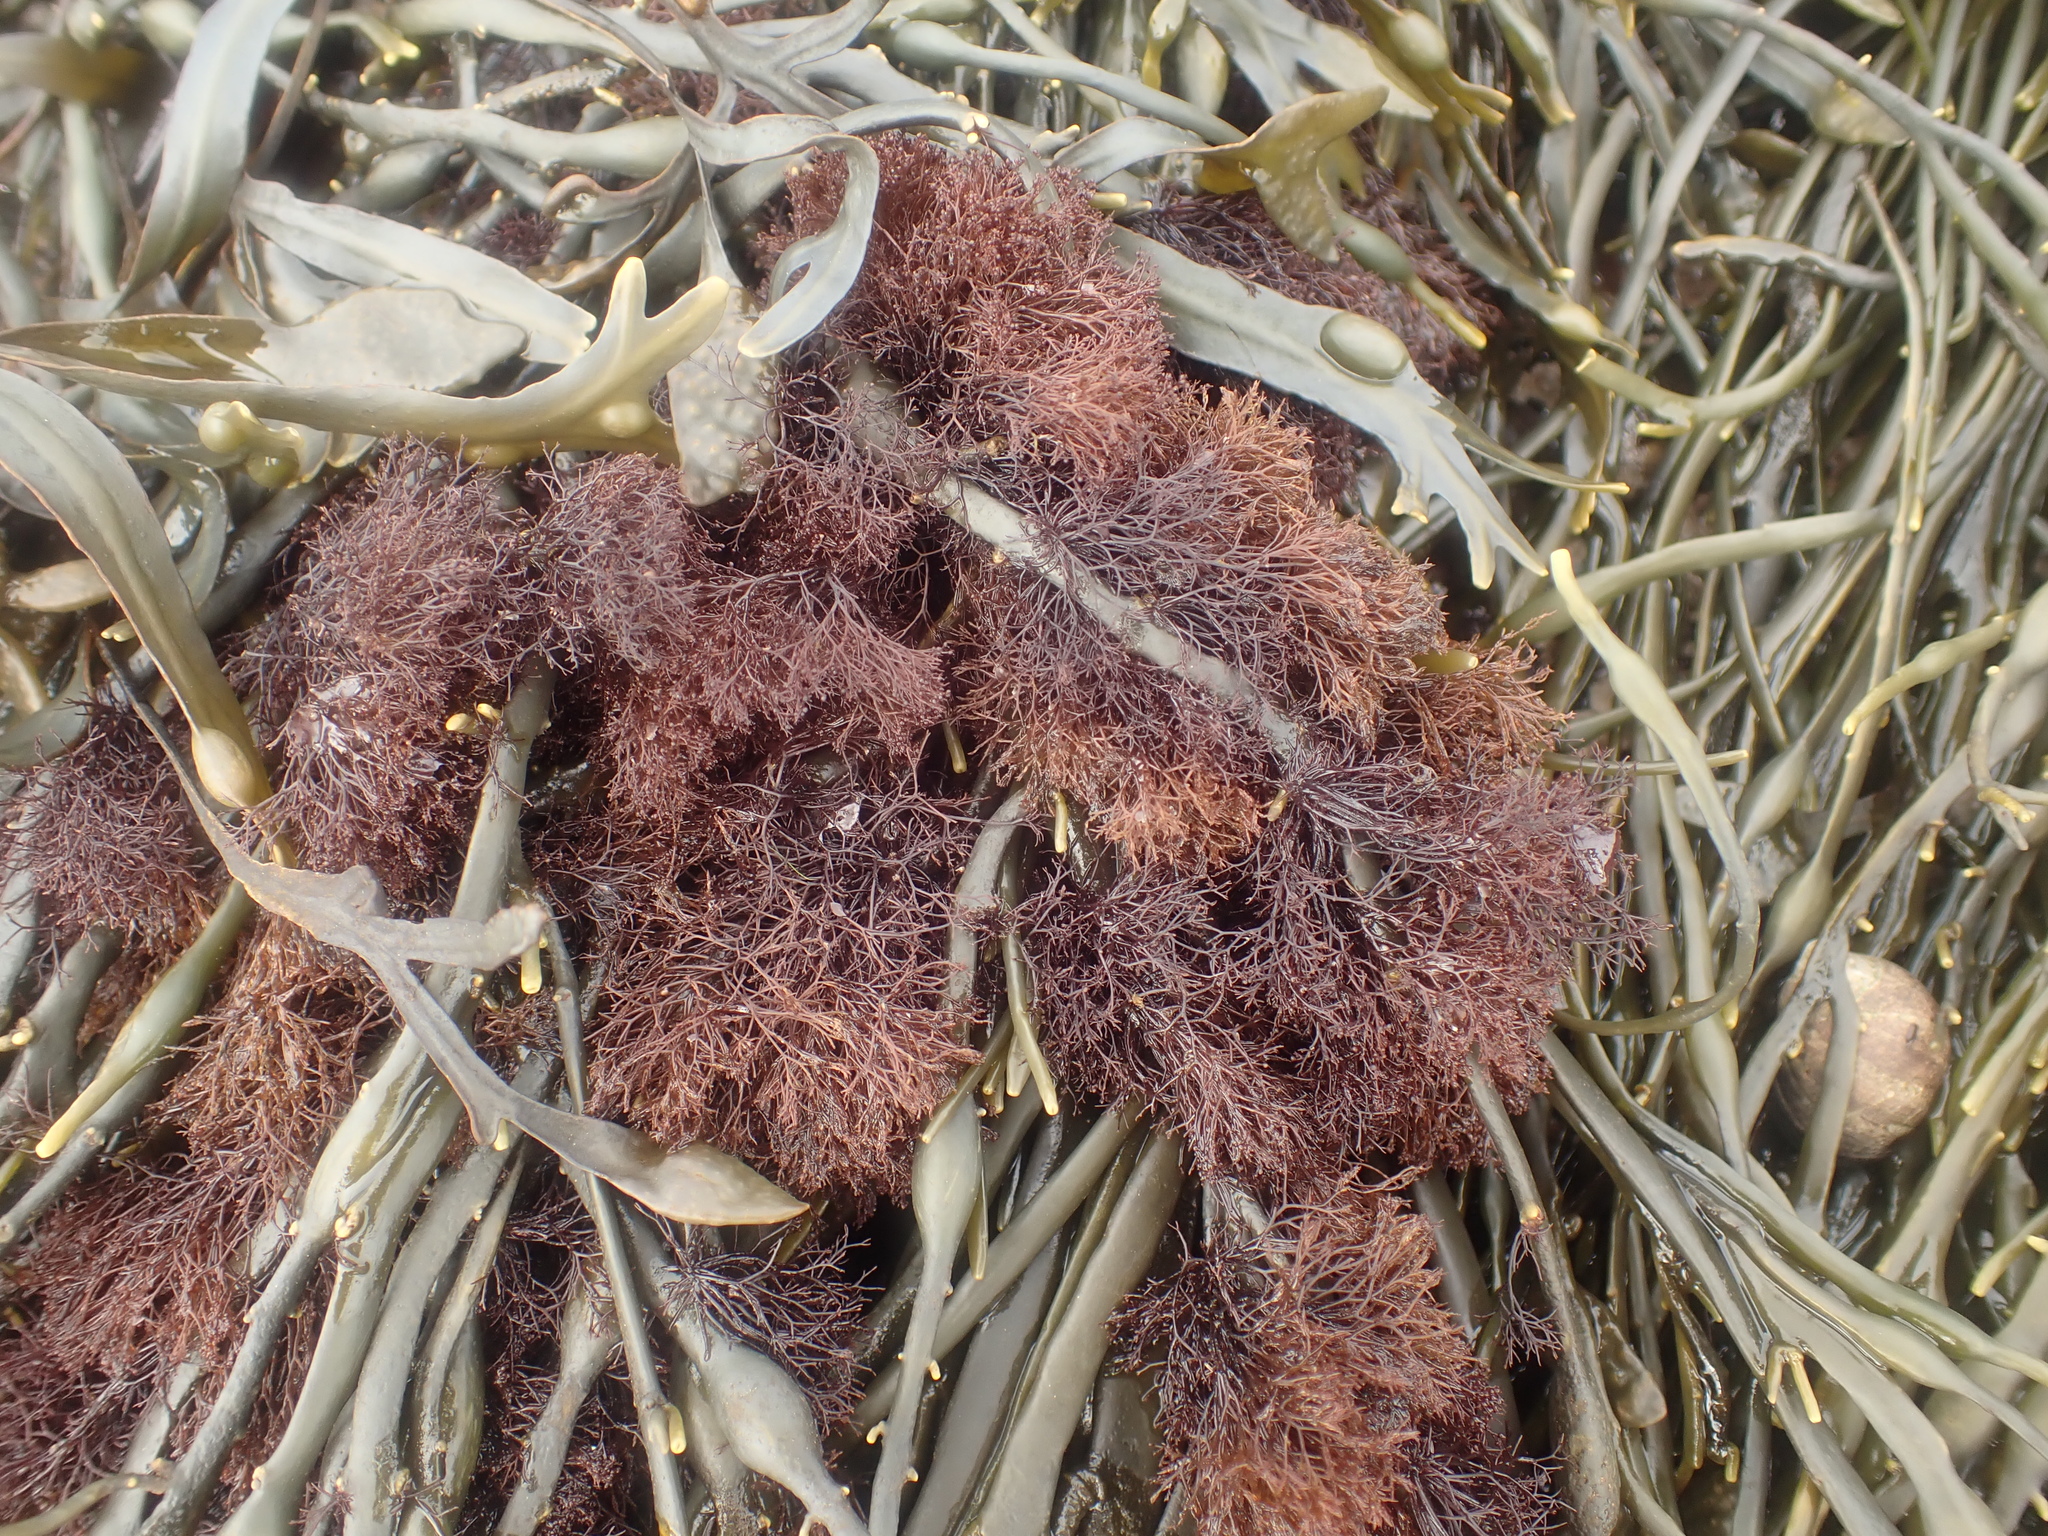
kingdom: Plantae
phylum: Rhodophyta
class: Florideophyceae
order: Ceramiales
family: Rhodomelaceae
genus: Vertebrata
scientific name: Vertebrata lanosa
